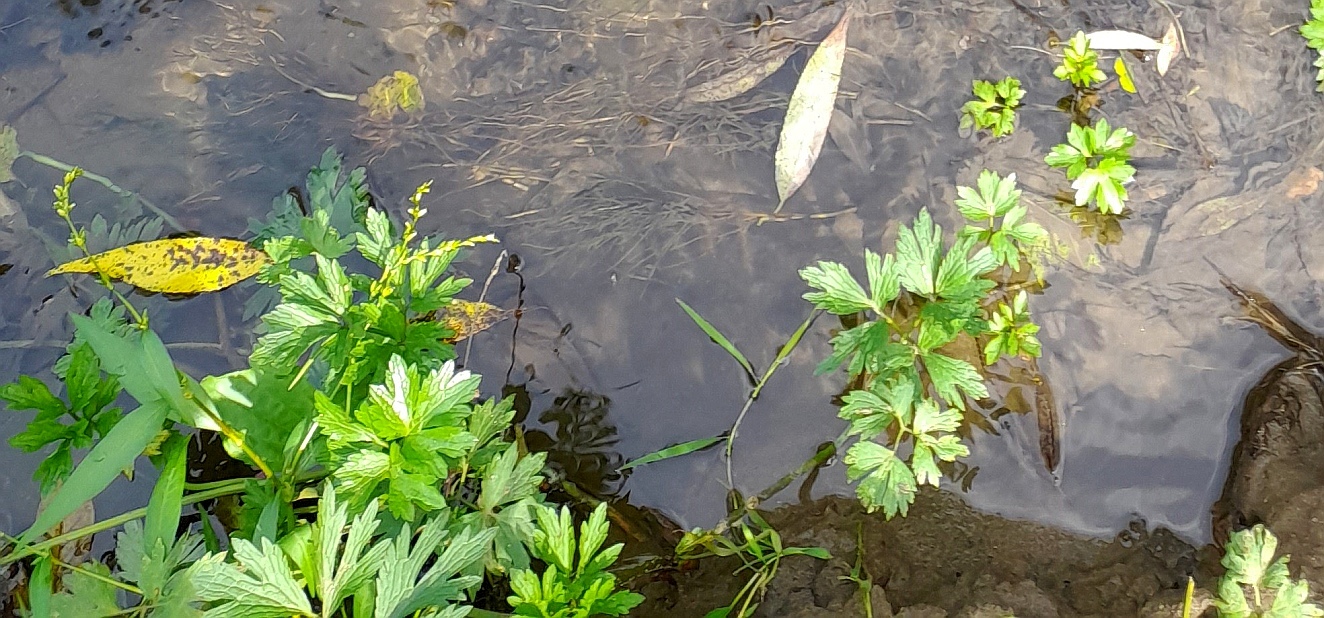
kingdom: Plantae
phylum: Tracheophyta
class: Magnoliopsida
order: Ranunculales
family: Ranunculaceae
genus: Ranunculus
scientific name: Ranunculus repens
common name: Creeping buttercup
